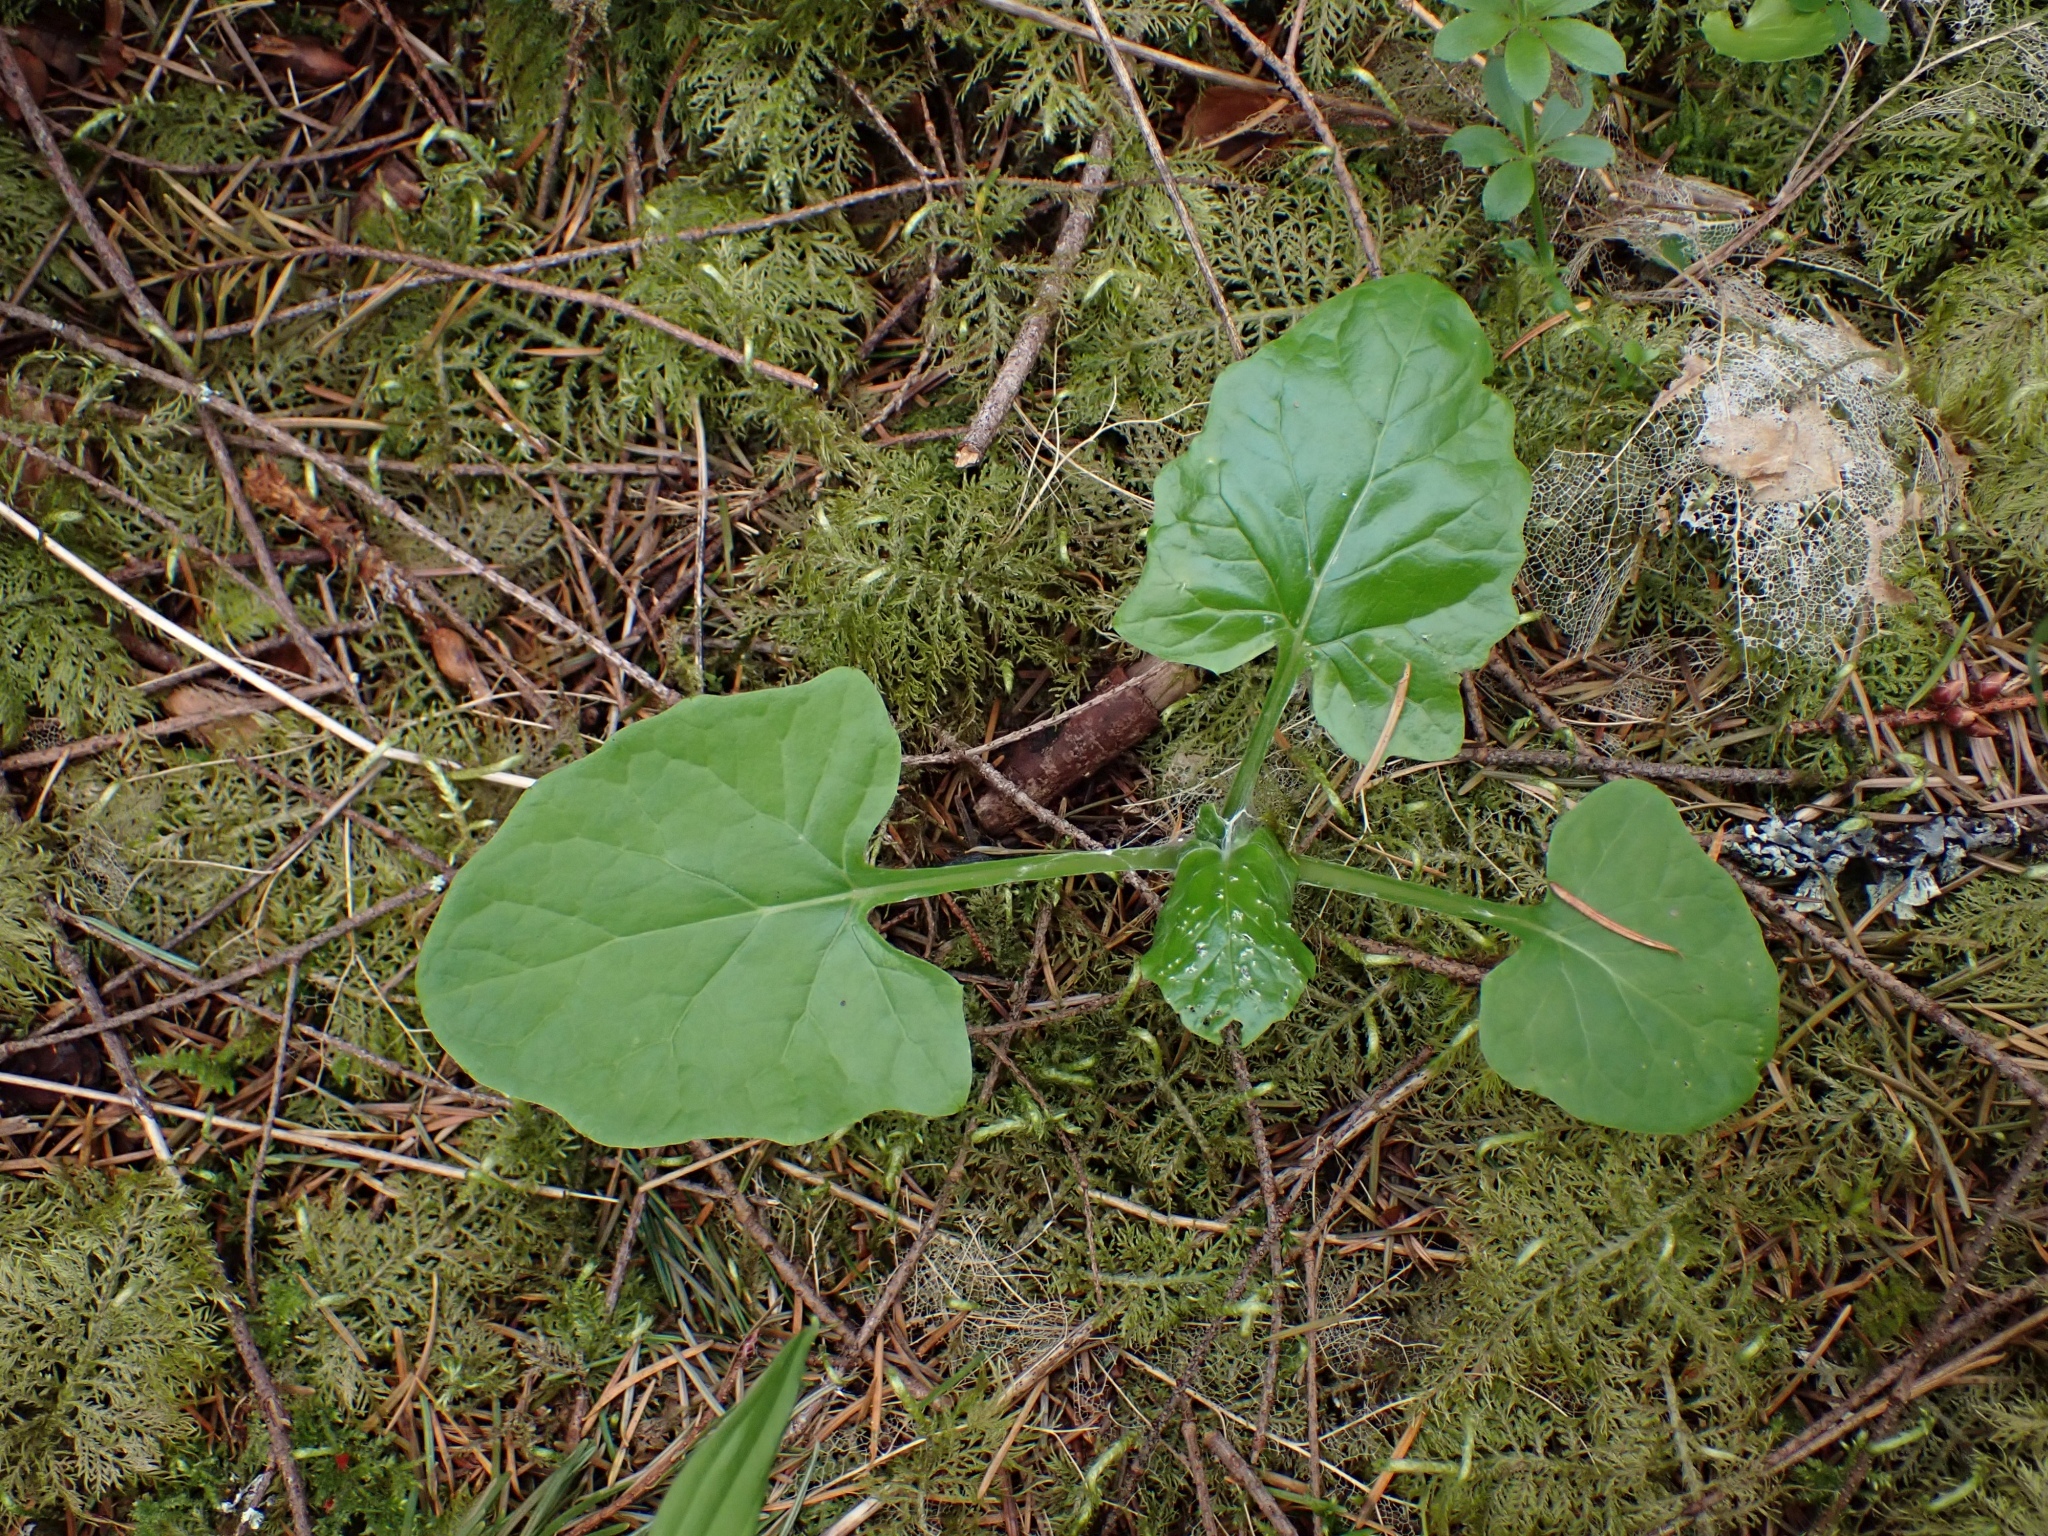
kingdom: Plantae
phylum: Tracheophyta
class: Magnoliopsida
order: Asterales
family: Asteraceae
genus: Adenocaulon
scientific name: Adenocaulon bicolor
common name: Trailplant
